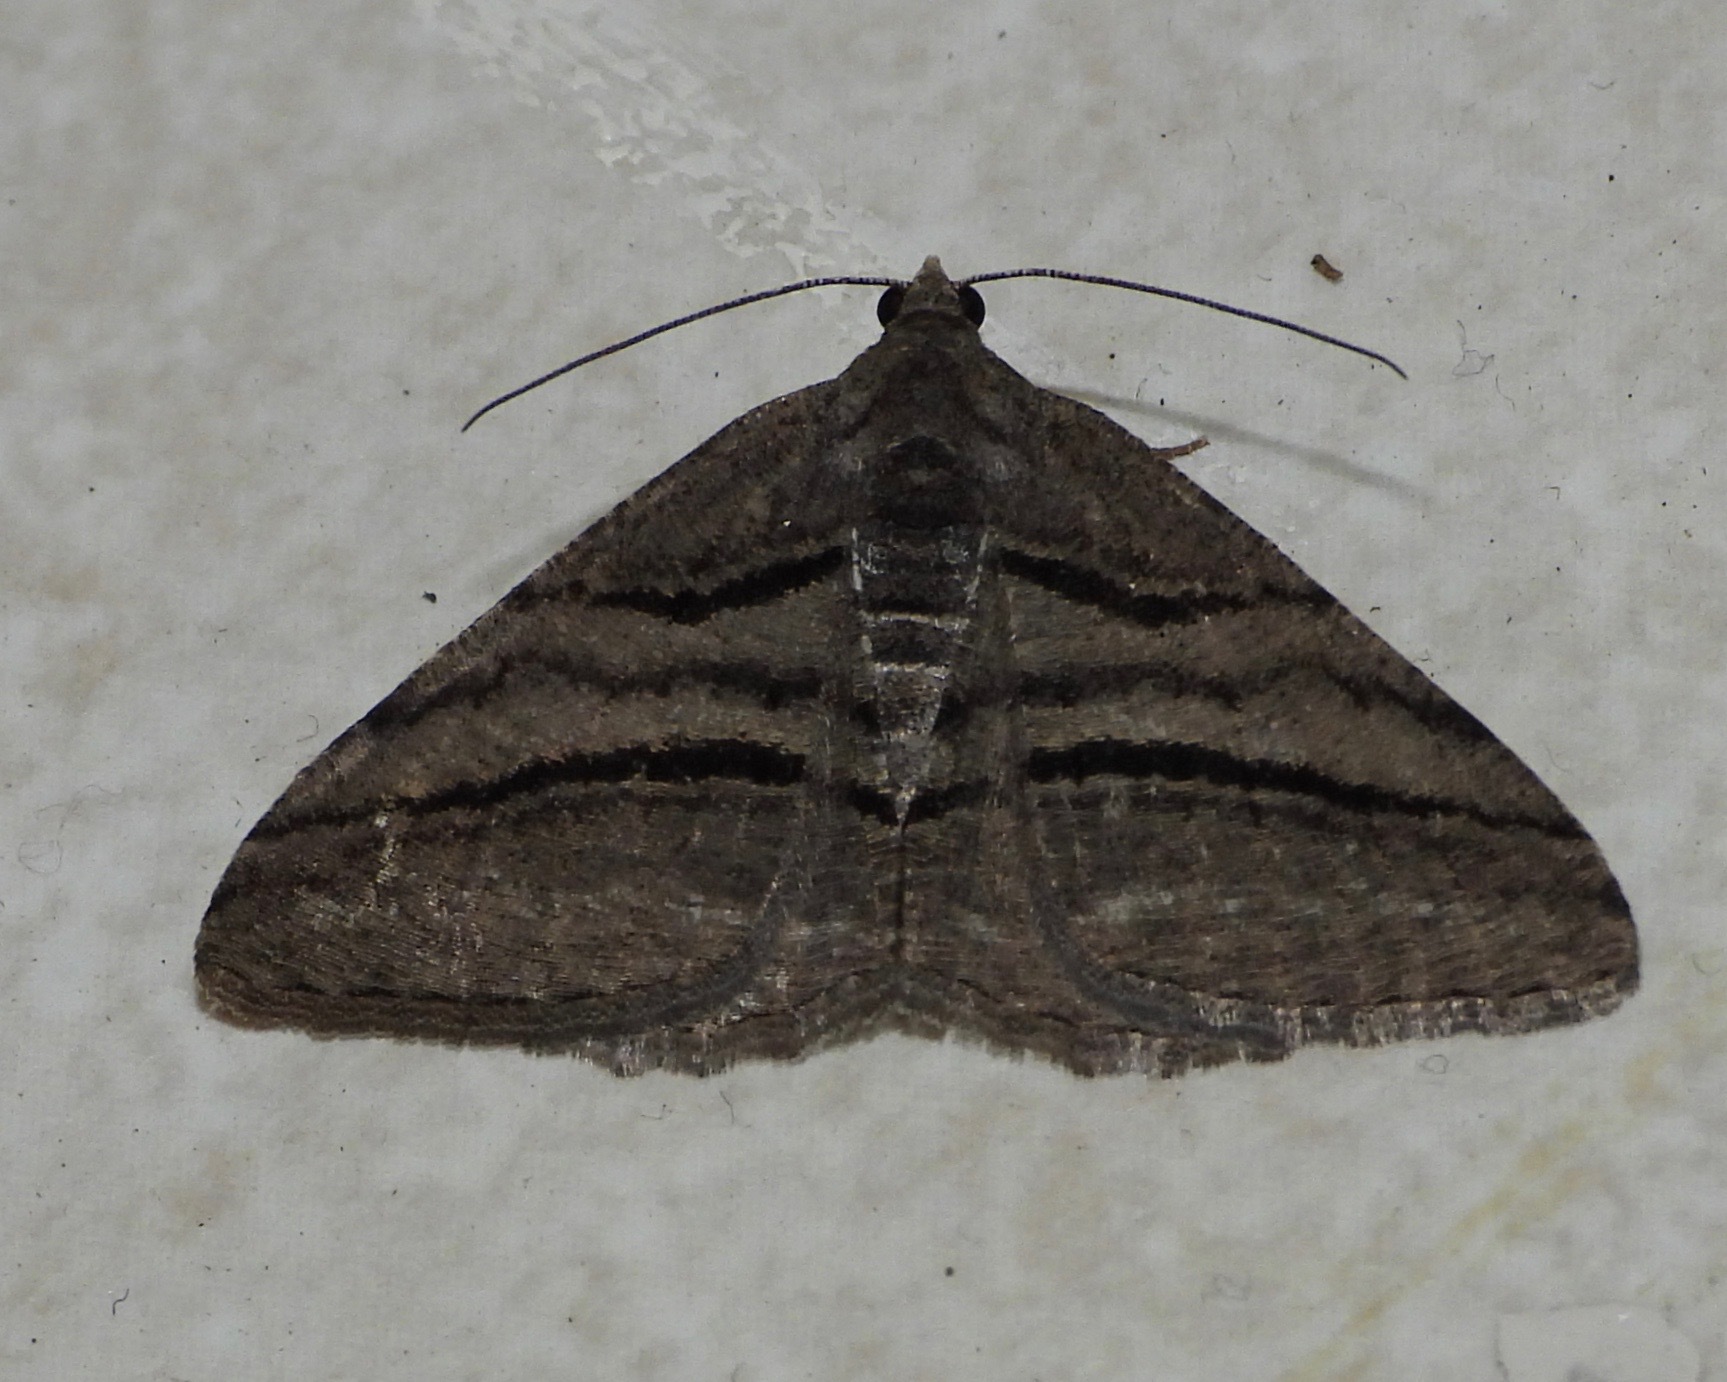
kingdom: Animalia
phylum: Arthropoda
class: Insecta
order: Lepidoptera
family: Geometridae
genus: Digrammia
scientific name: Digrammia atrofasciata
